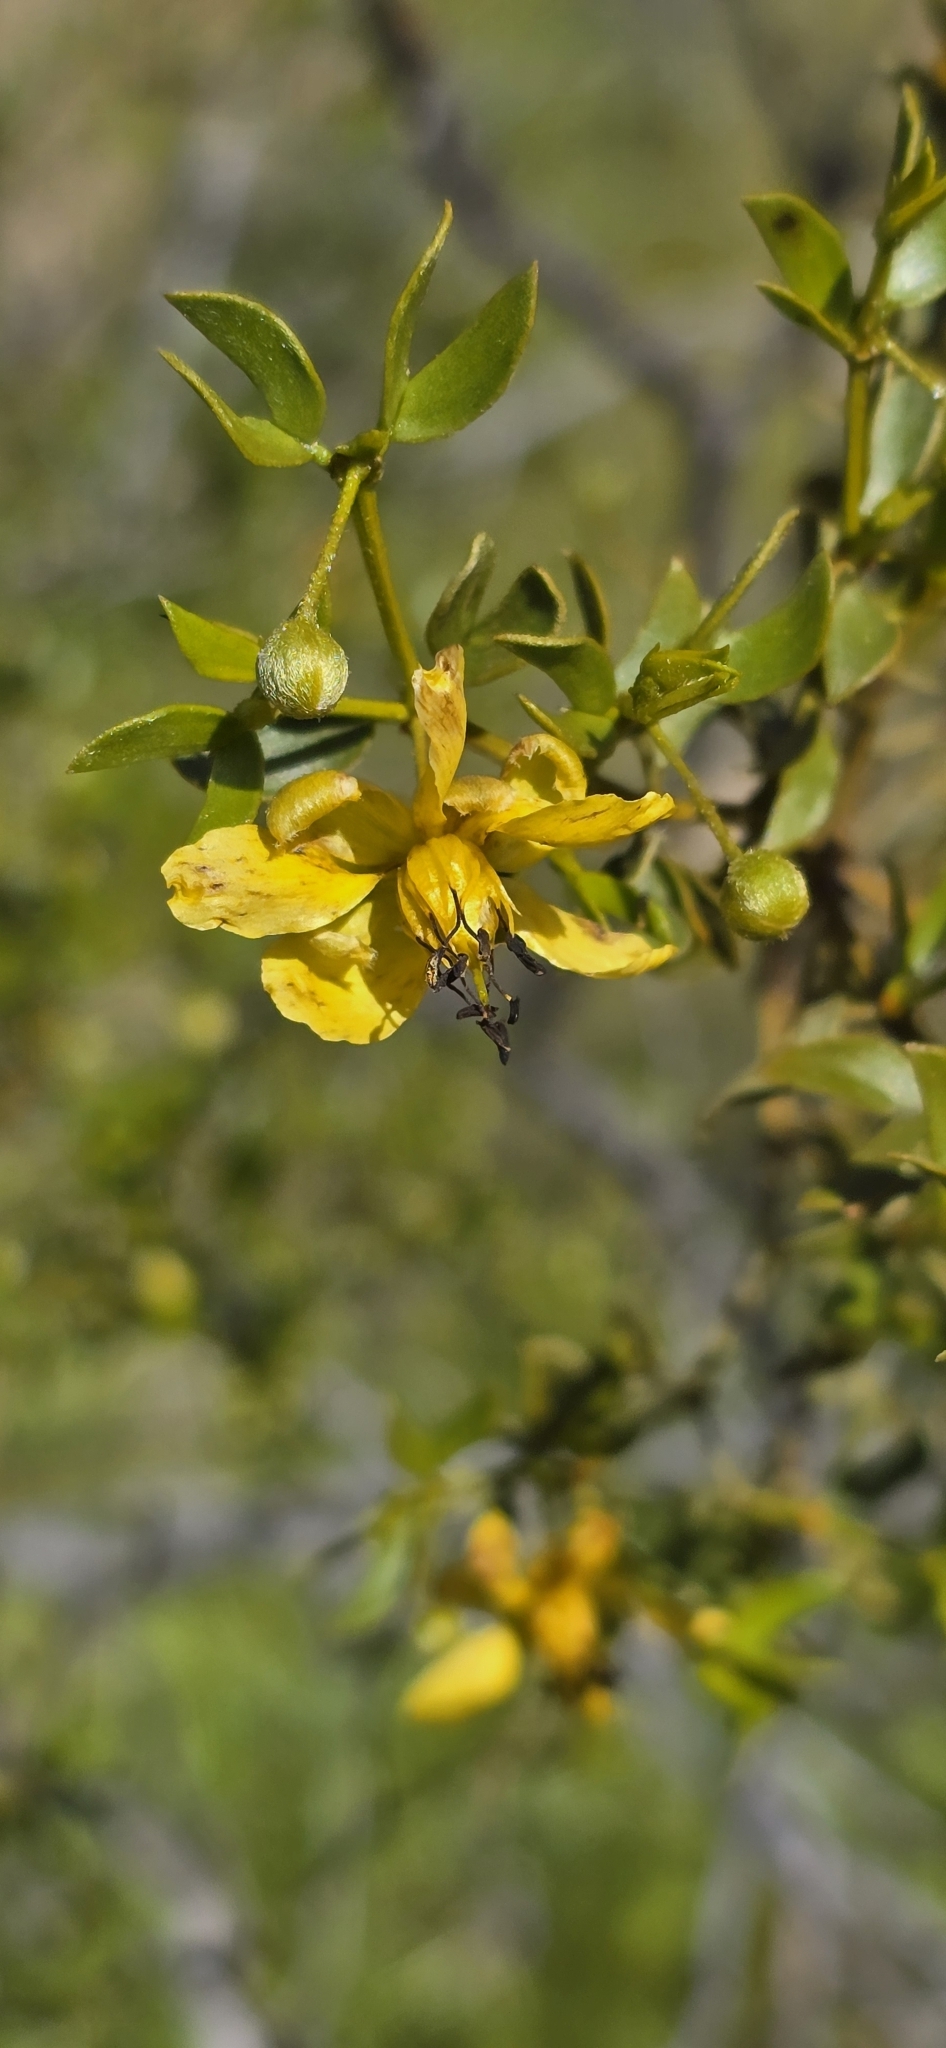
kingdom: Plantae
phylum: Tracheophyta
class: Magnoliopsida
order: Zygophyllales
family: Zygophyllaceae
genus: Larrea
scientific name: Larrea tridentata
